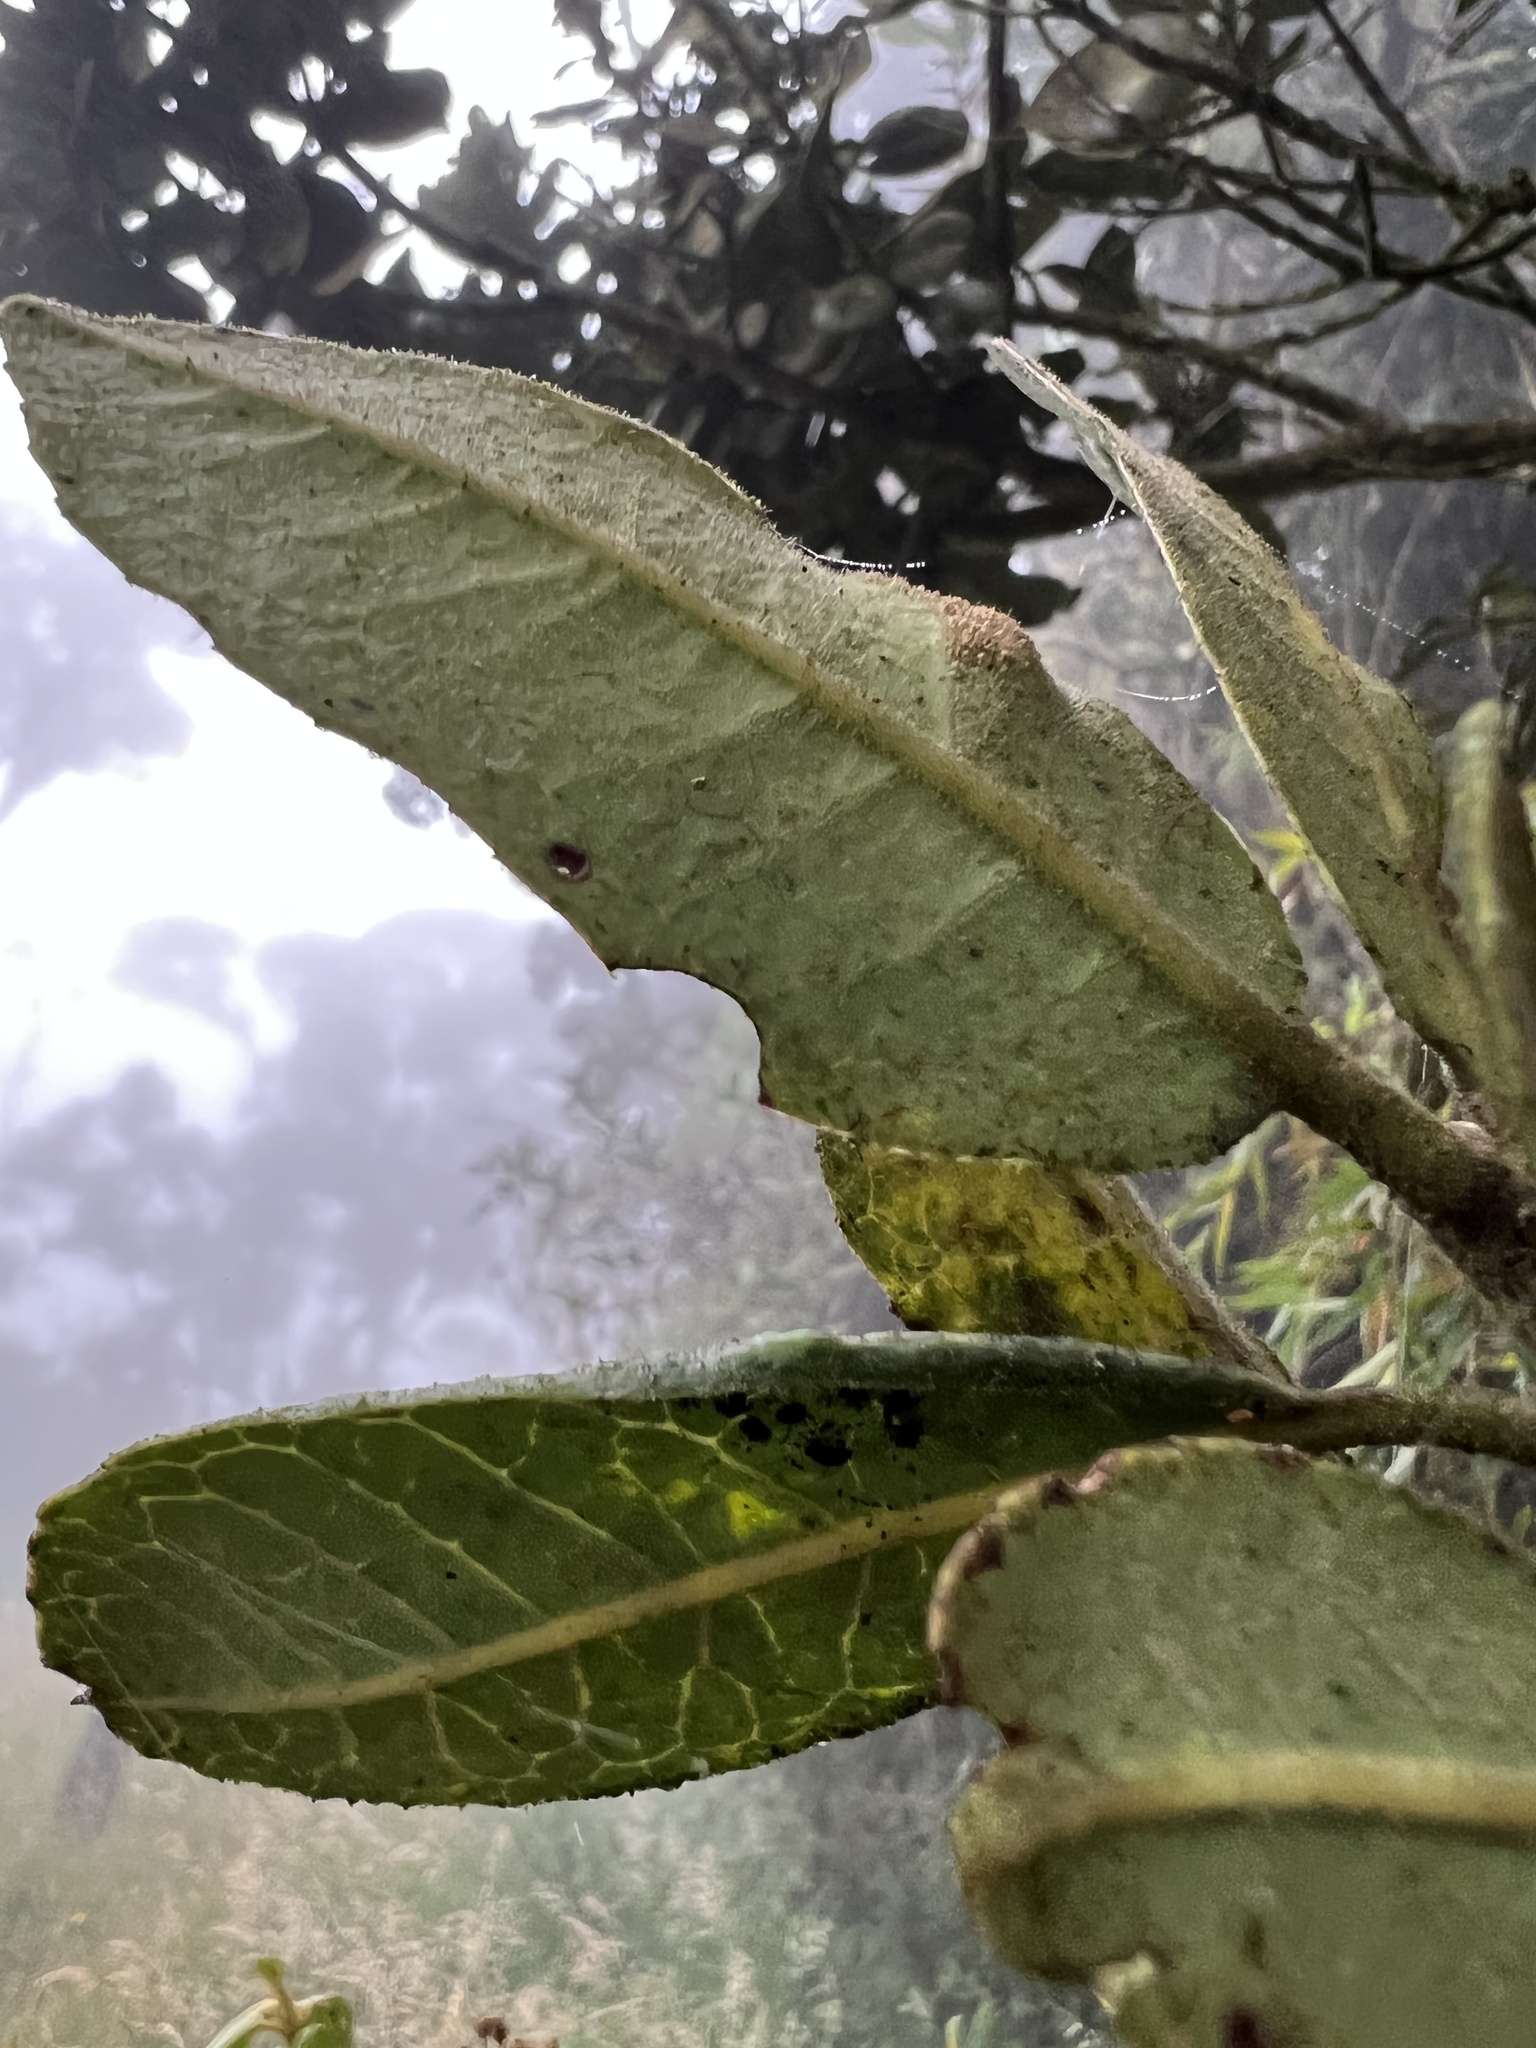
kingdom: Plantae
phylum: Tracheophyta
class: Magnoliopsida
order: Aquifoliales
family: Aquifoliaceae
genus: Ilex
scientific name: Ilex nervosa
